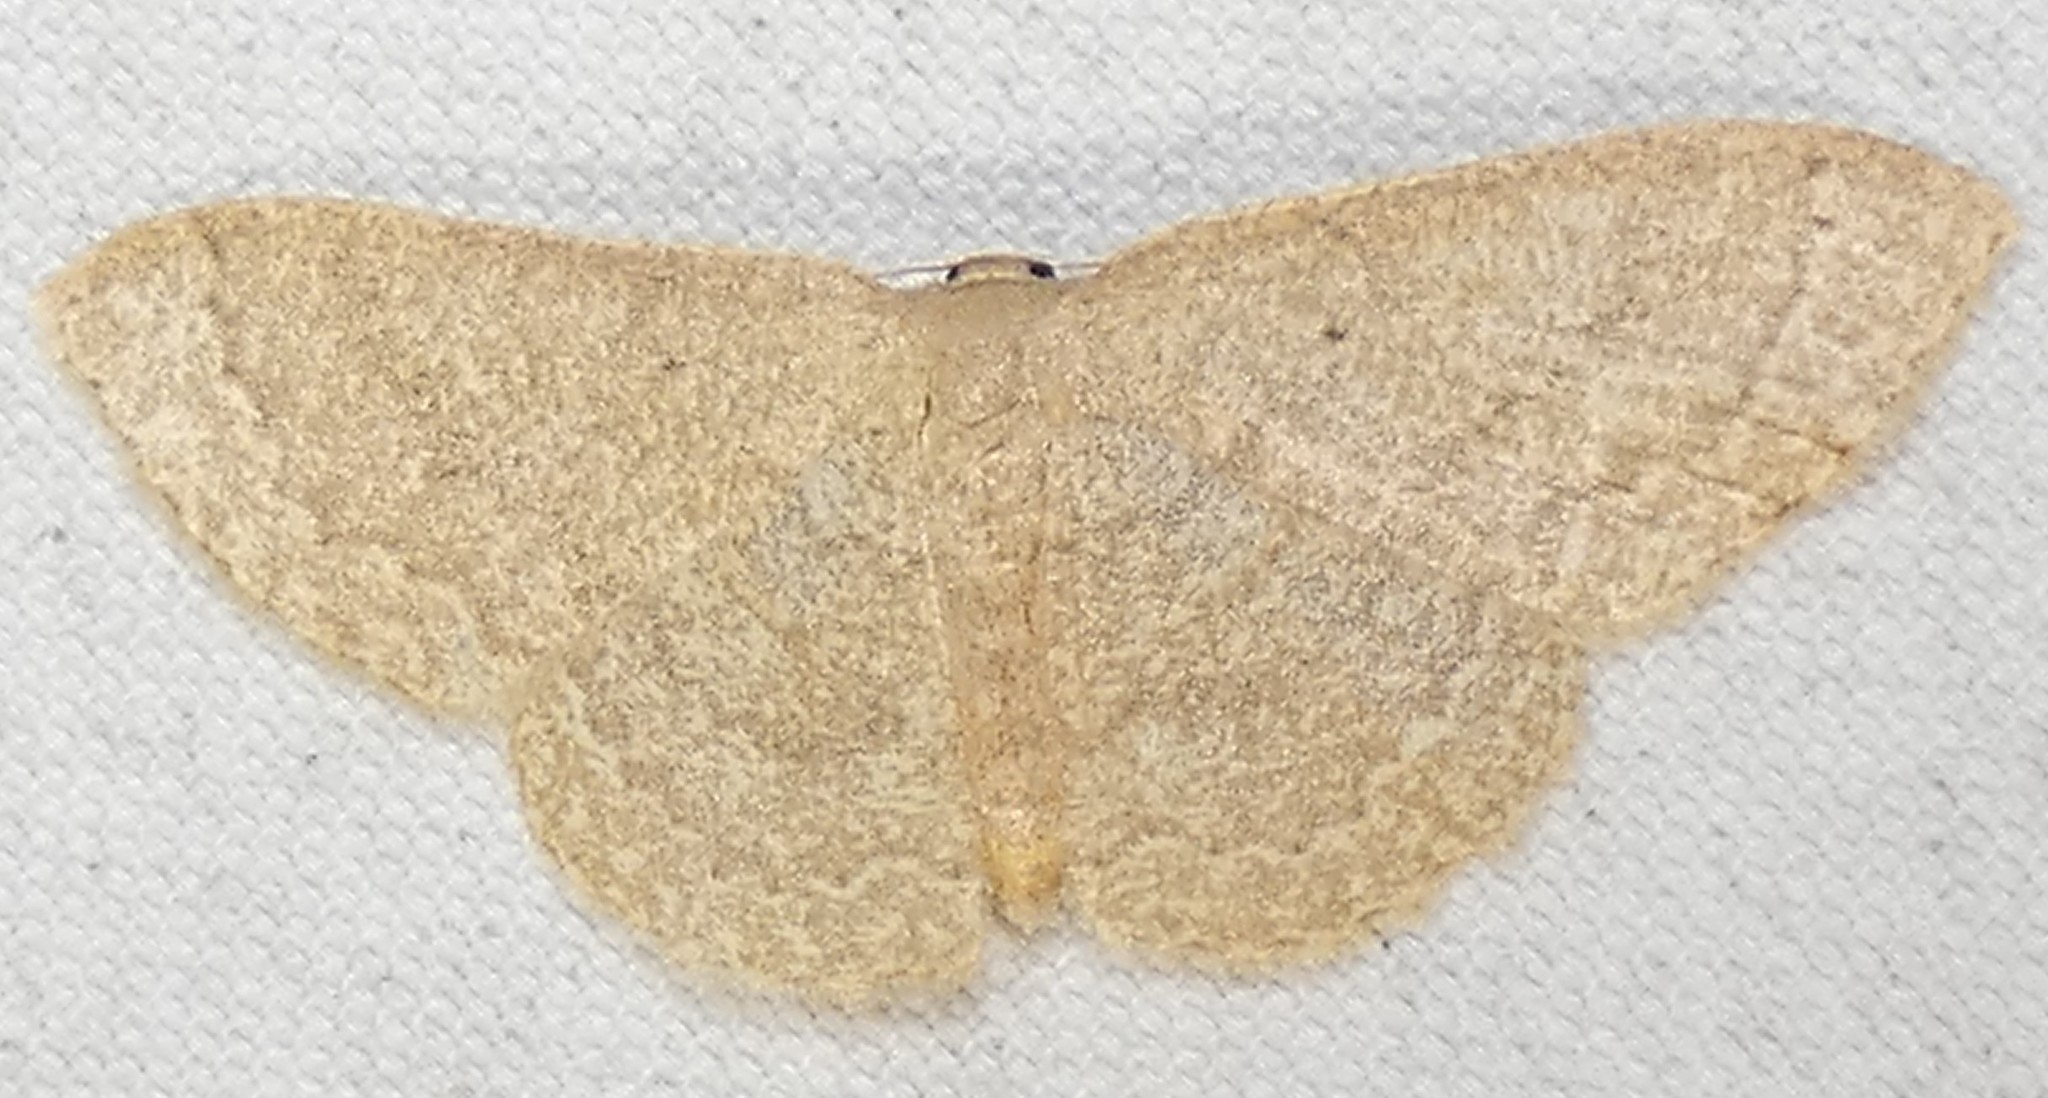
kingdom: Animalia
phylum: Arthropoda
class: Insecta
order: Lepidoptera
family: Geometridae
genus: Pleuroprucha
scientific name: Pleuroprucha insulsaria
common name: Common tan wave
